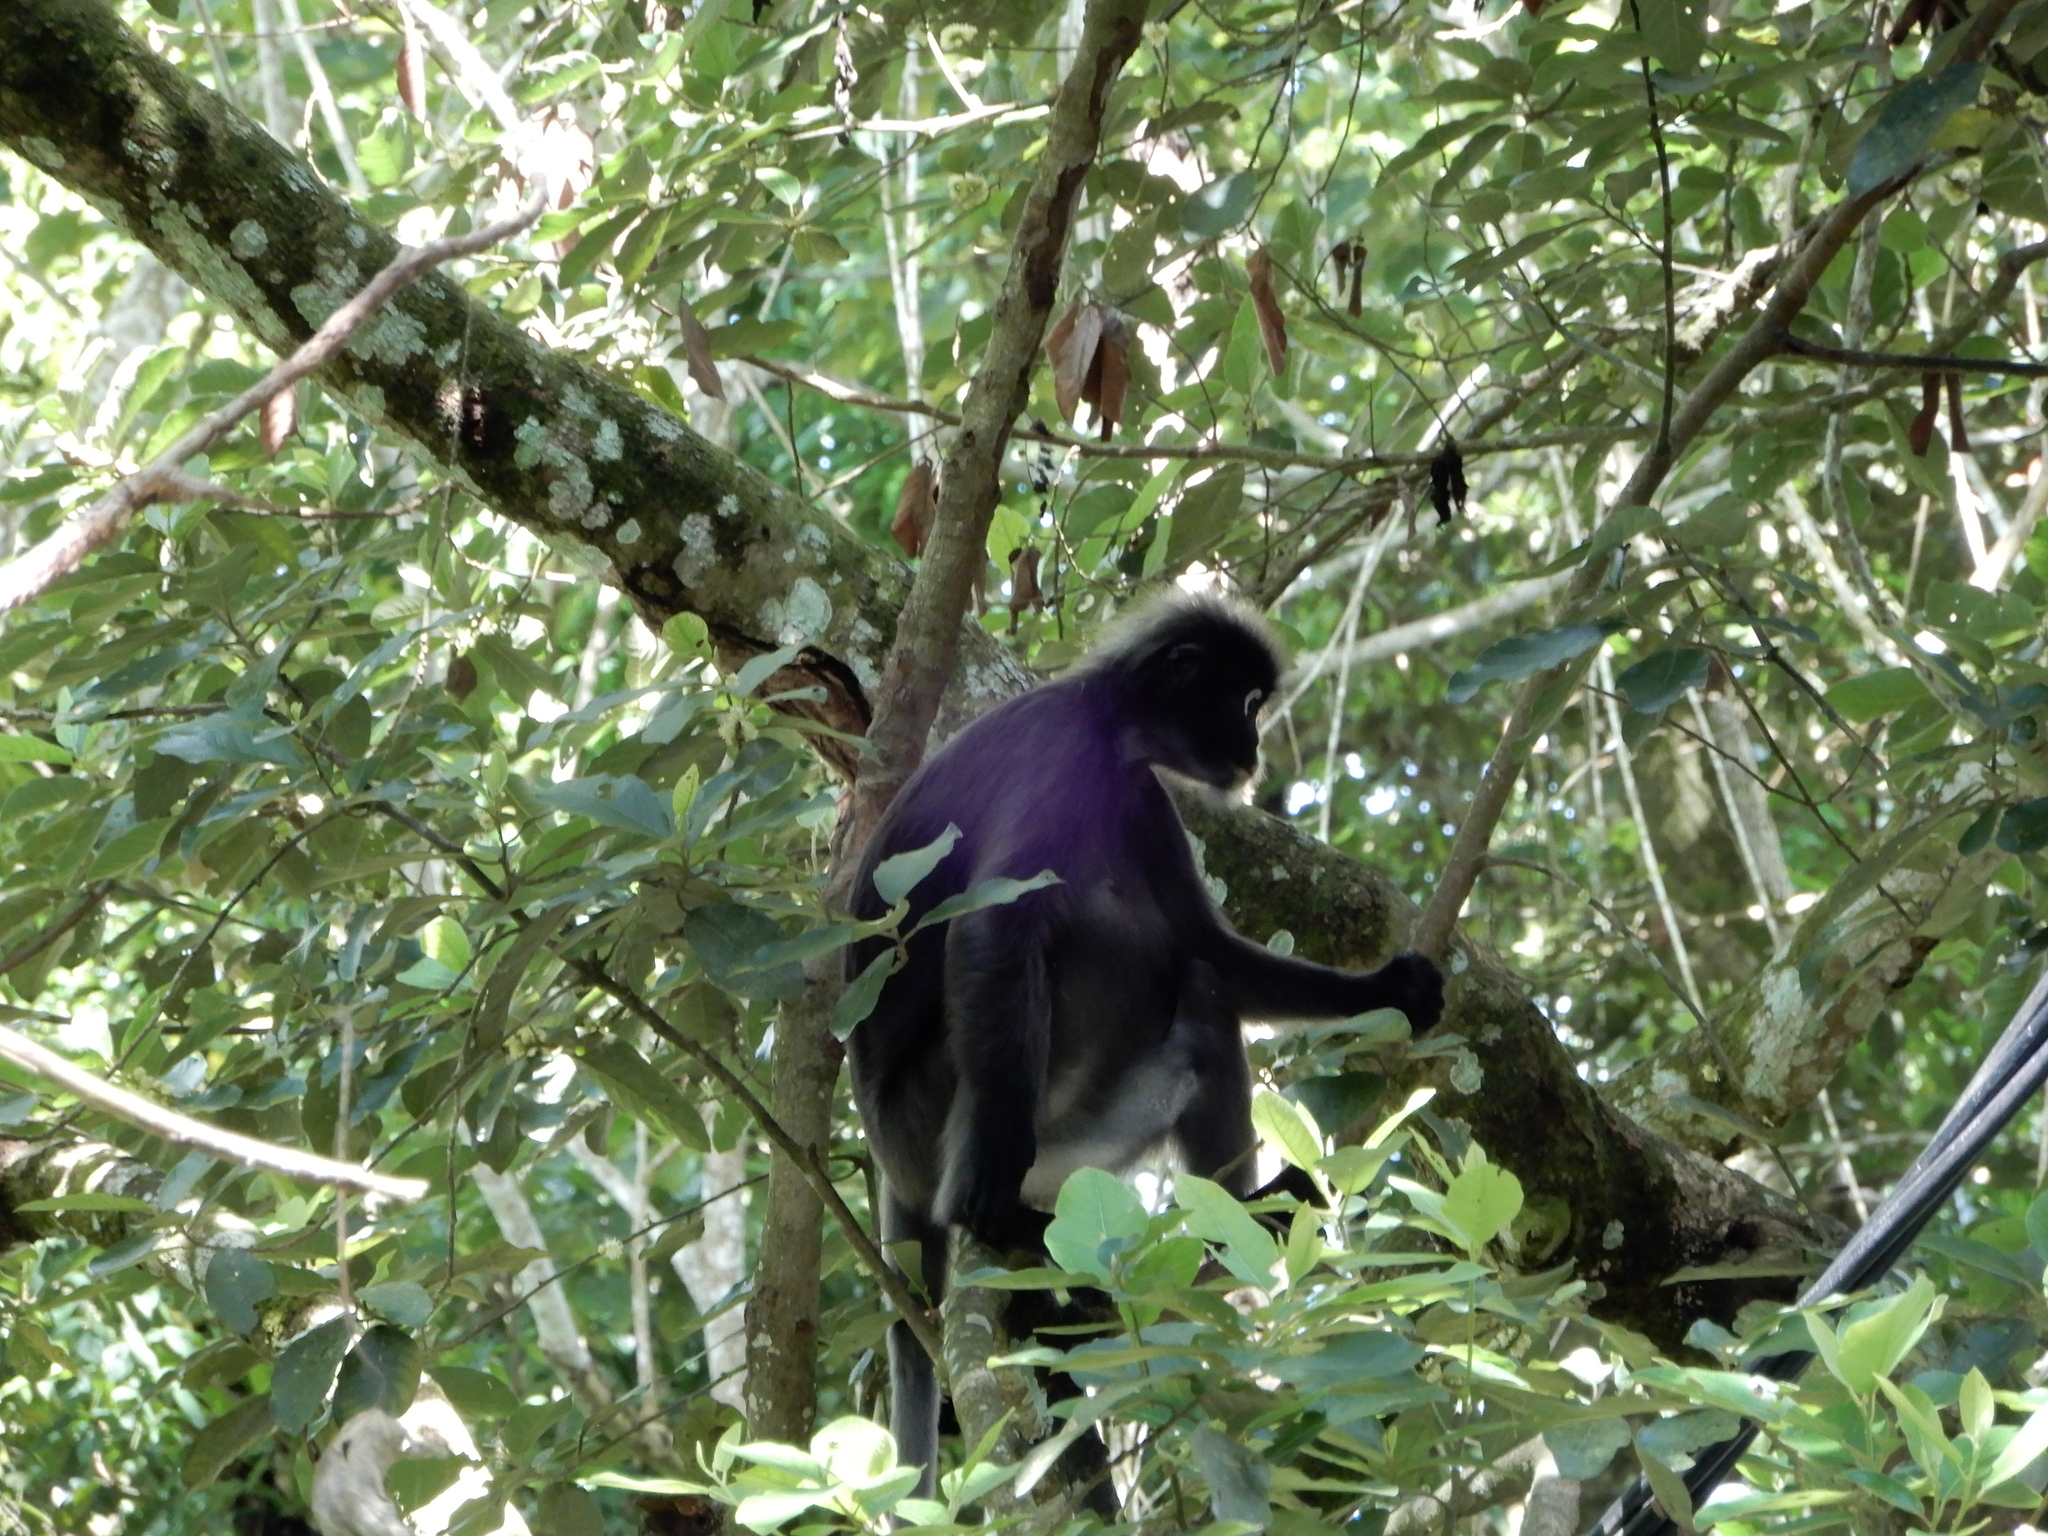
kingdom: Animalia
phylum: Chordata
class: Mammalia
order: Primates
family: Cercopithecidae
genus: Trachypithecus
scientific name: Trachypithecus obscurus
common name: Dusky leaf-monkey
